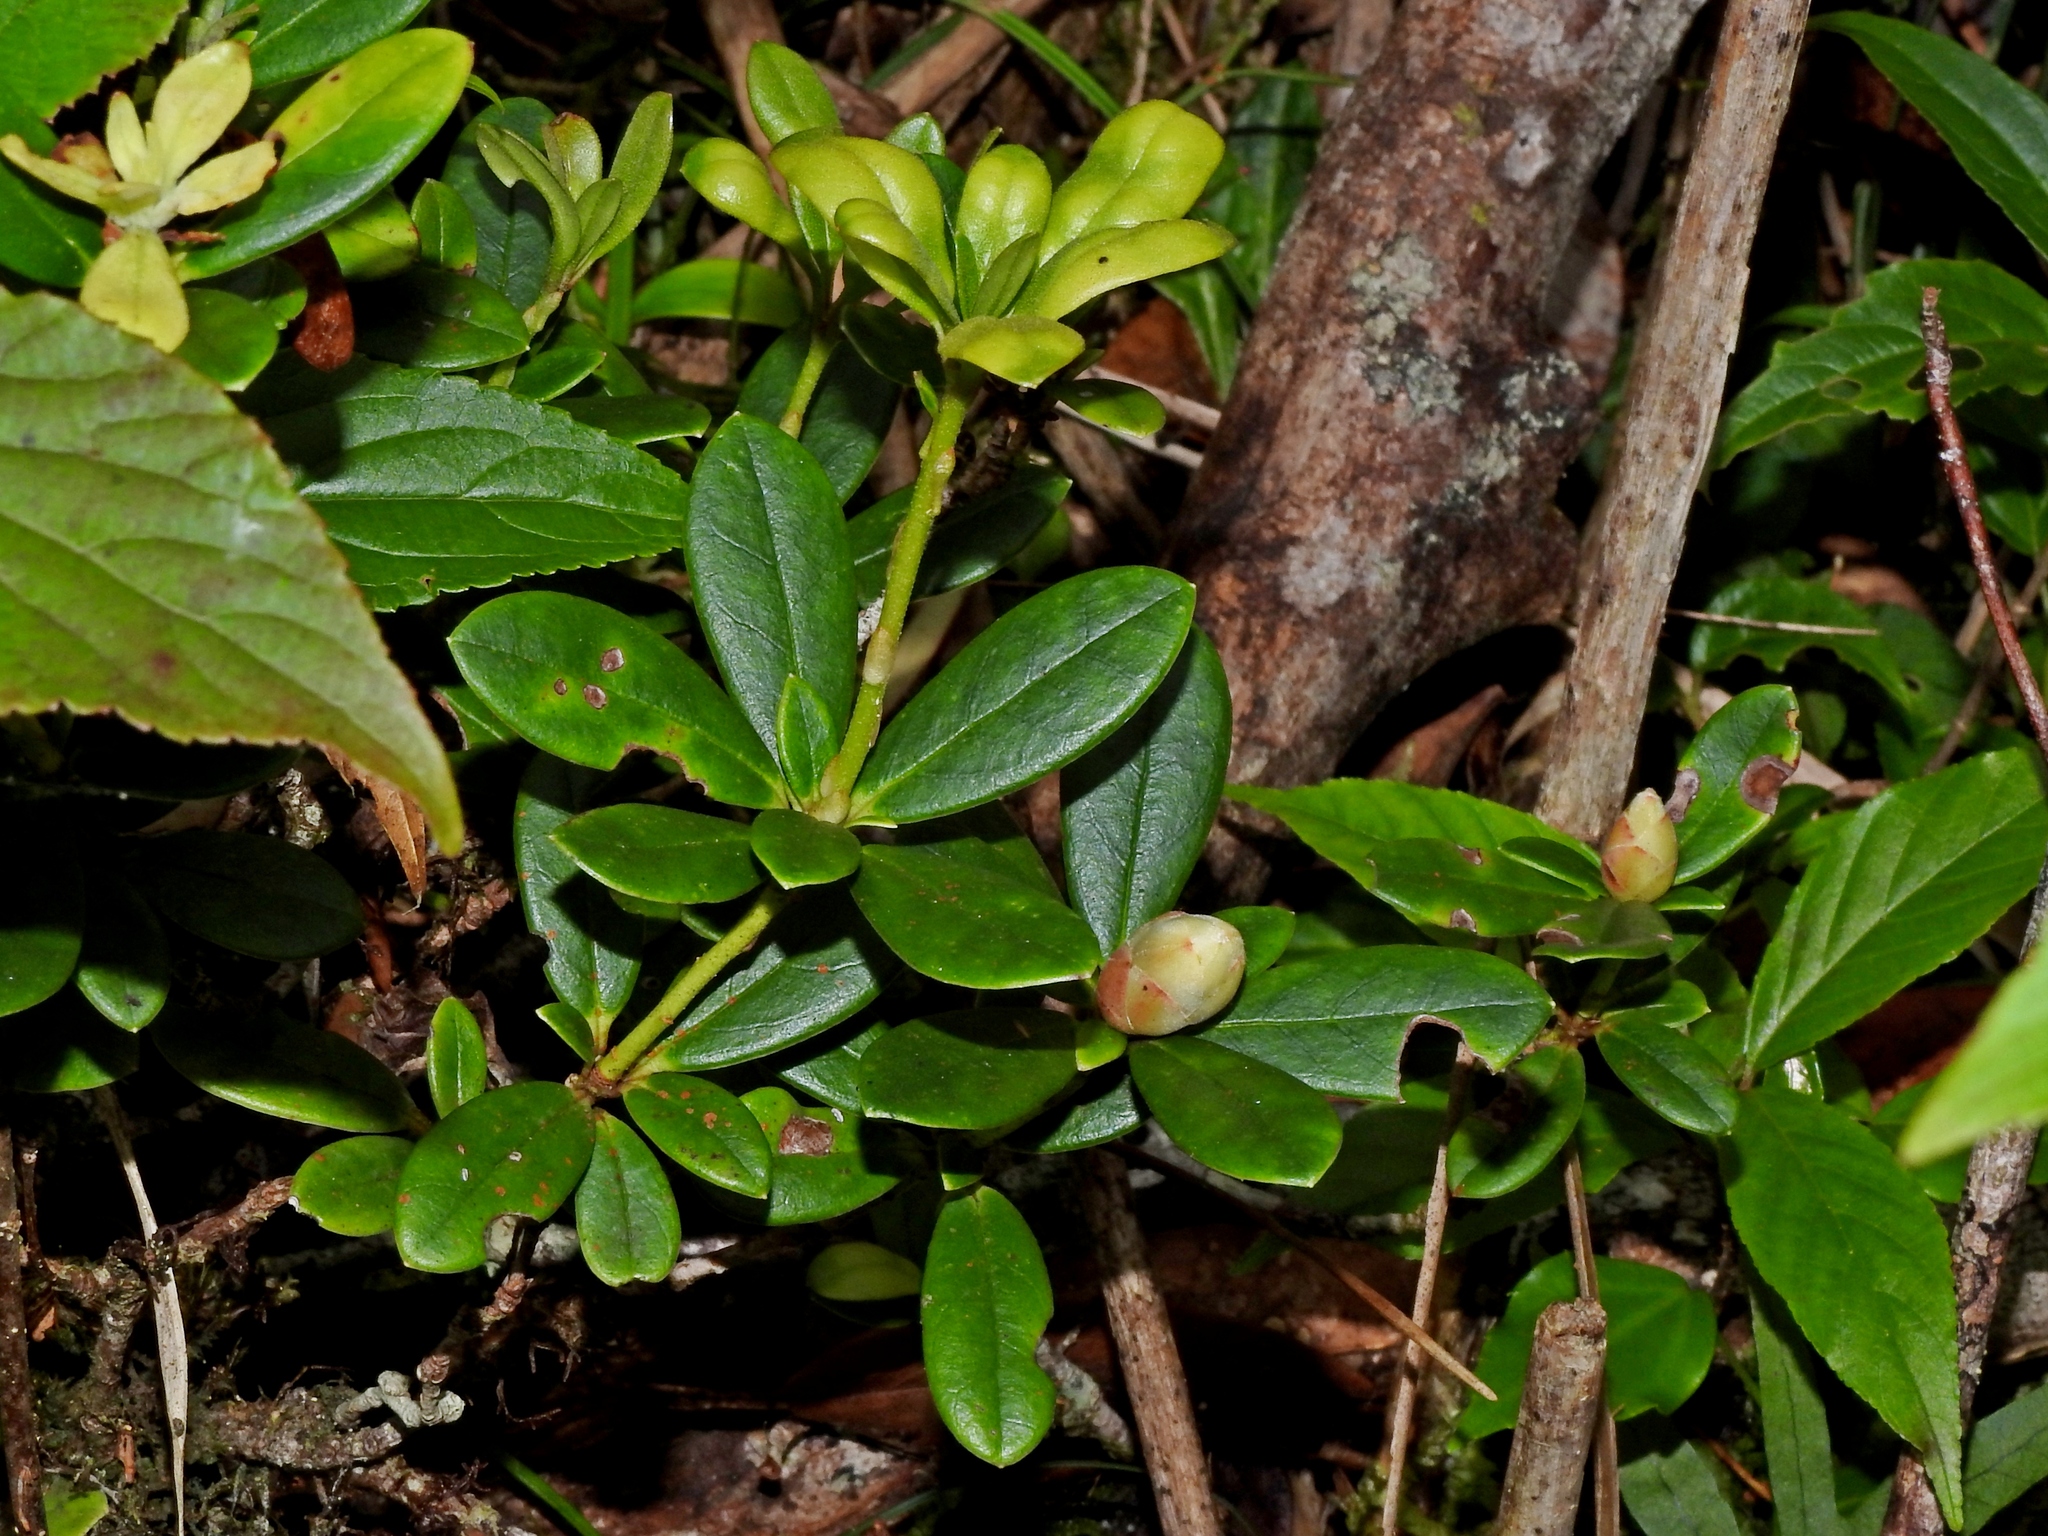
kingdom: Plantae
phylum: Tracheophyta
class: Magnoliopsida
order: Ericales
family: Ericaceae
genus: Rhododendron
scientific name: Rhododendron kawakamii
